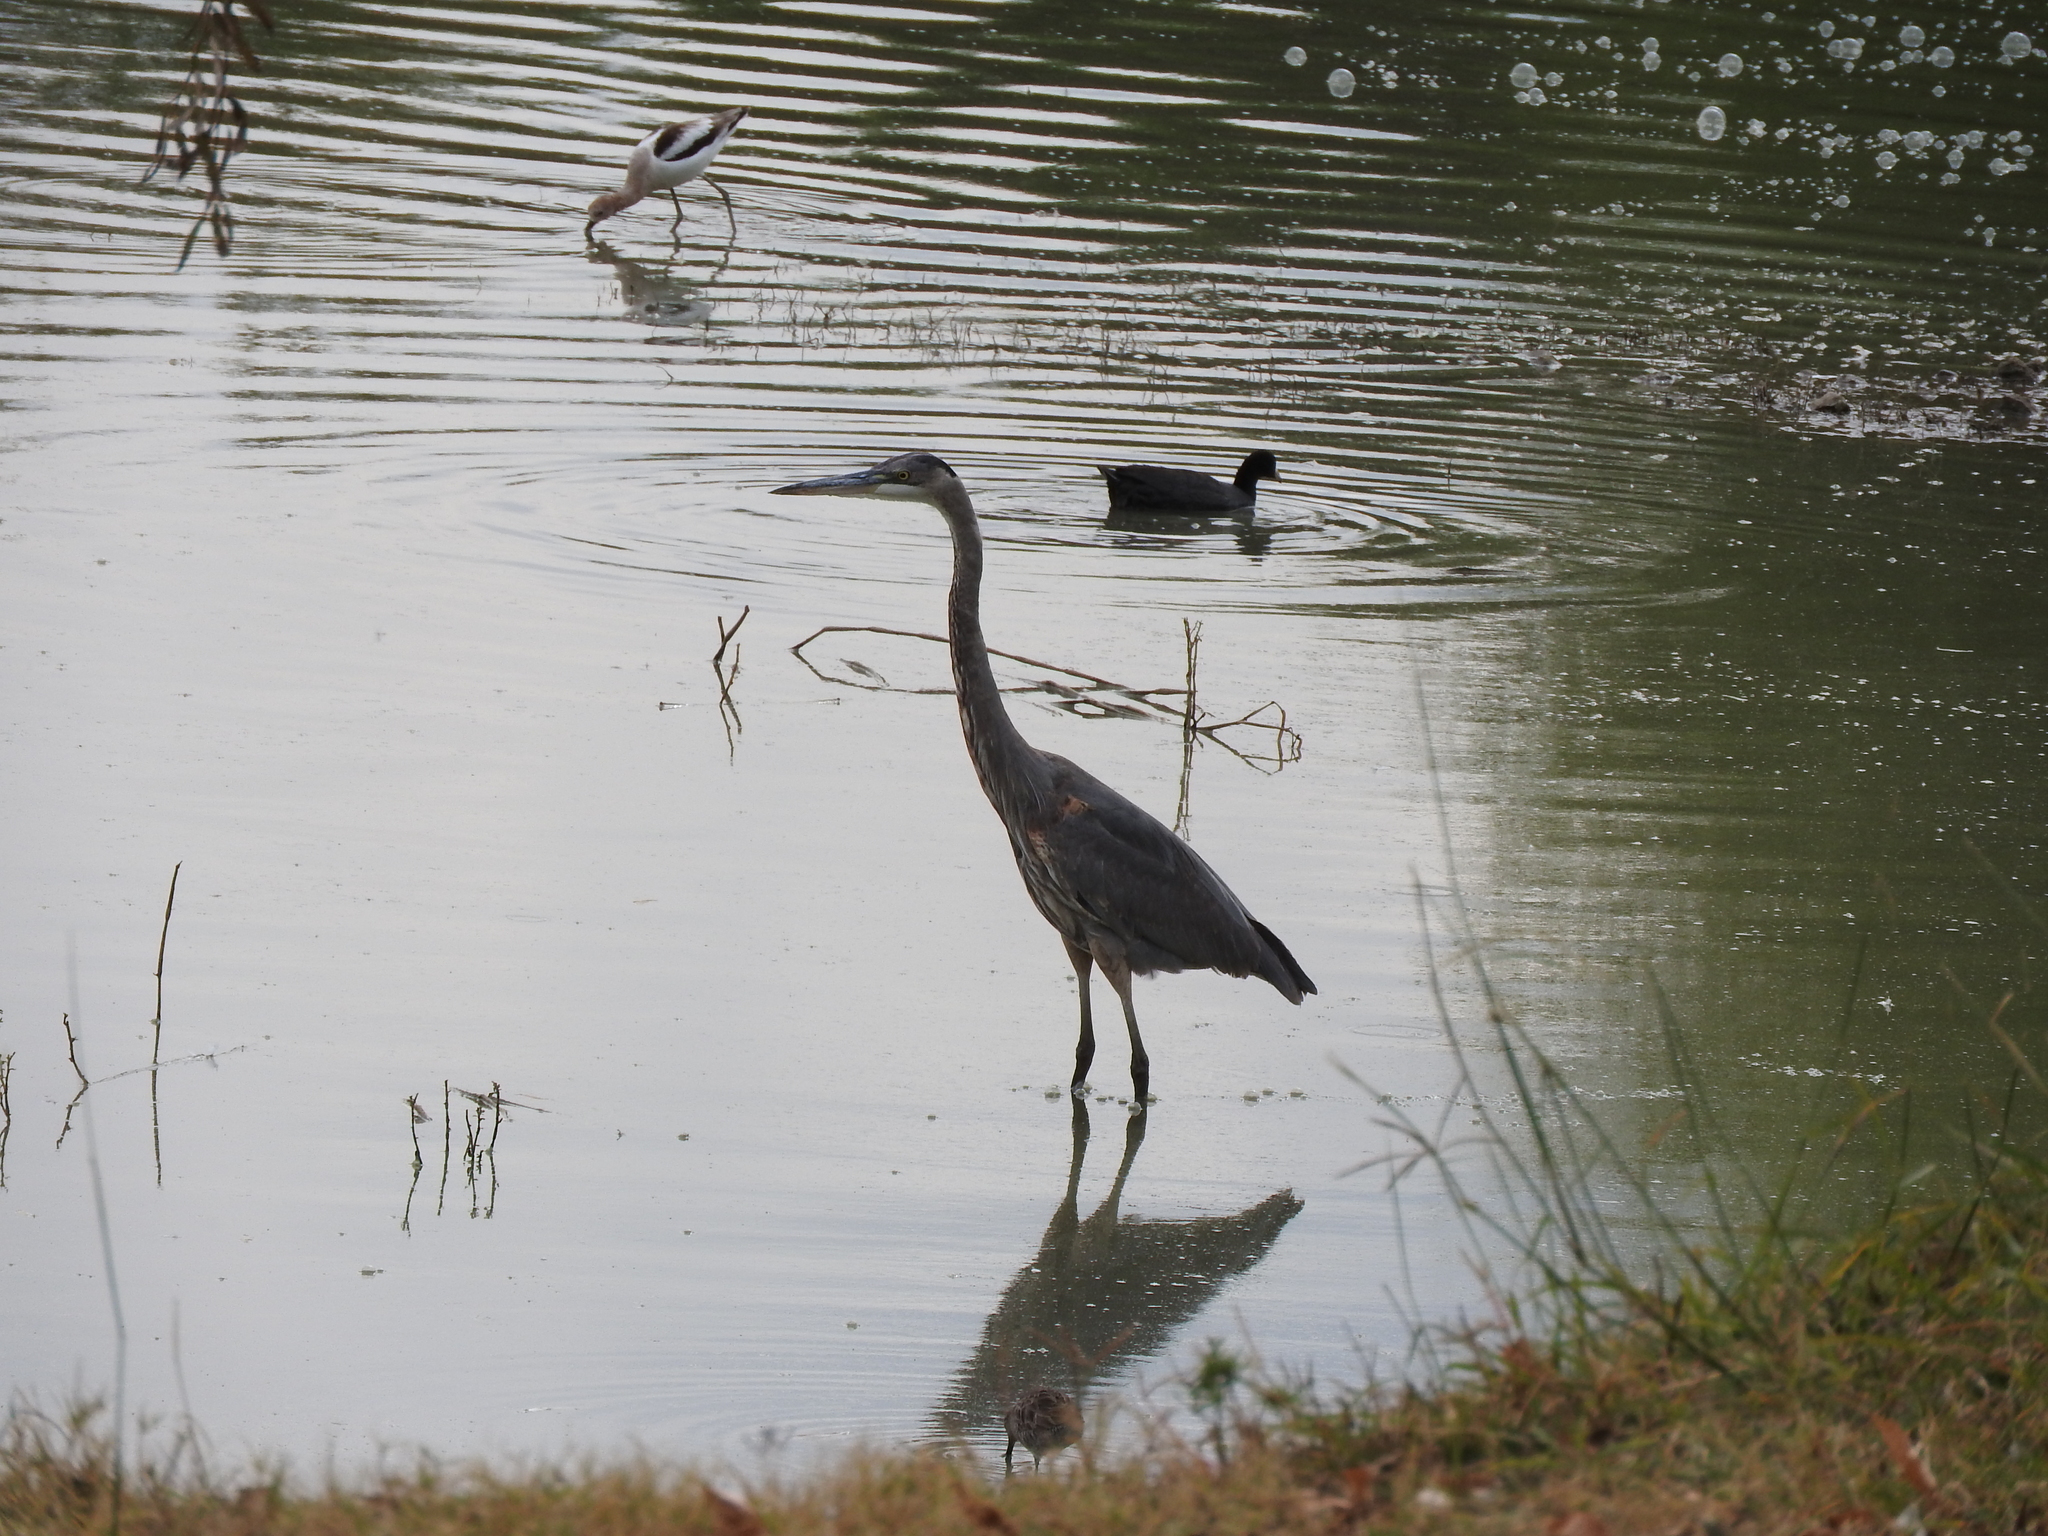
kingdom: Animalia
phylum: Chordata
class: Aves
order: Gruiformes
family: Rallidae
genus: Fulica
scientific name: Fulica americana
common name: American coot
